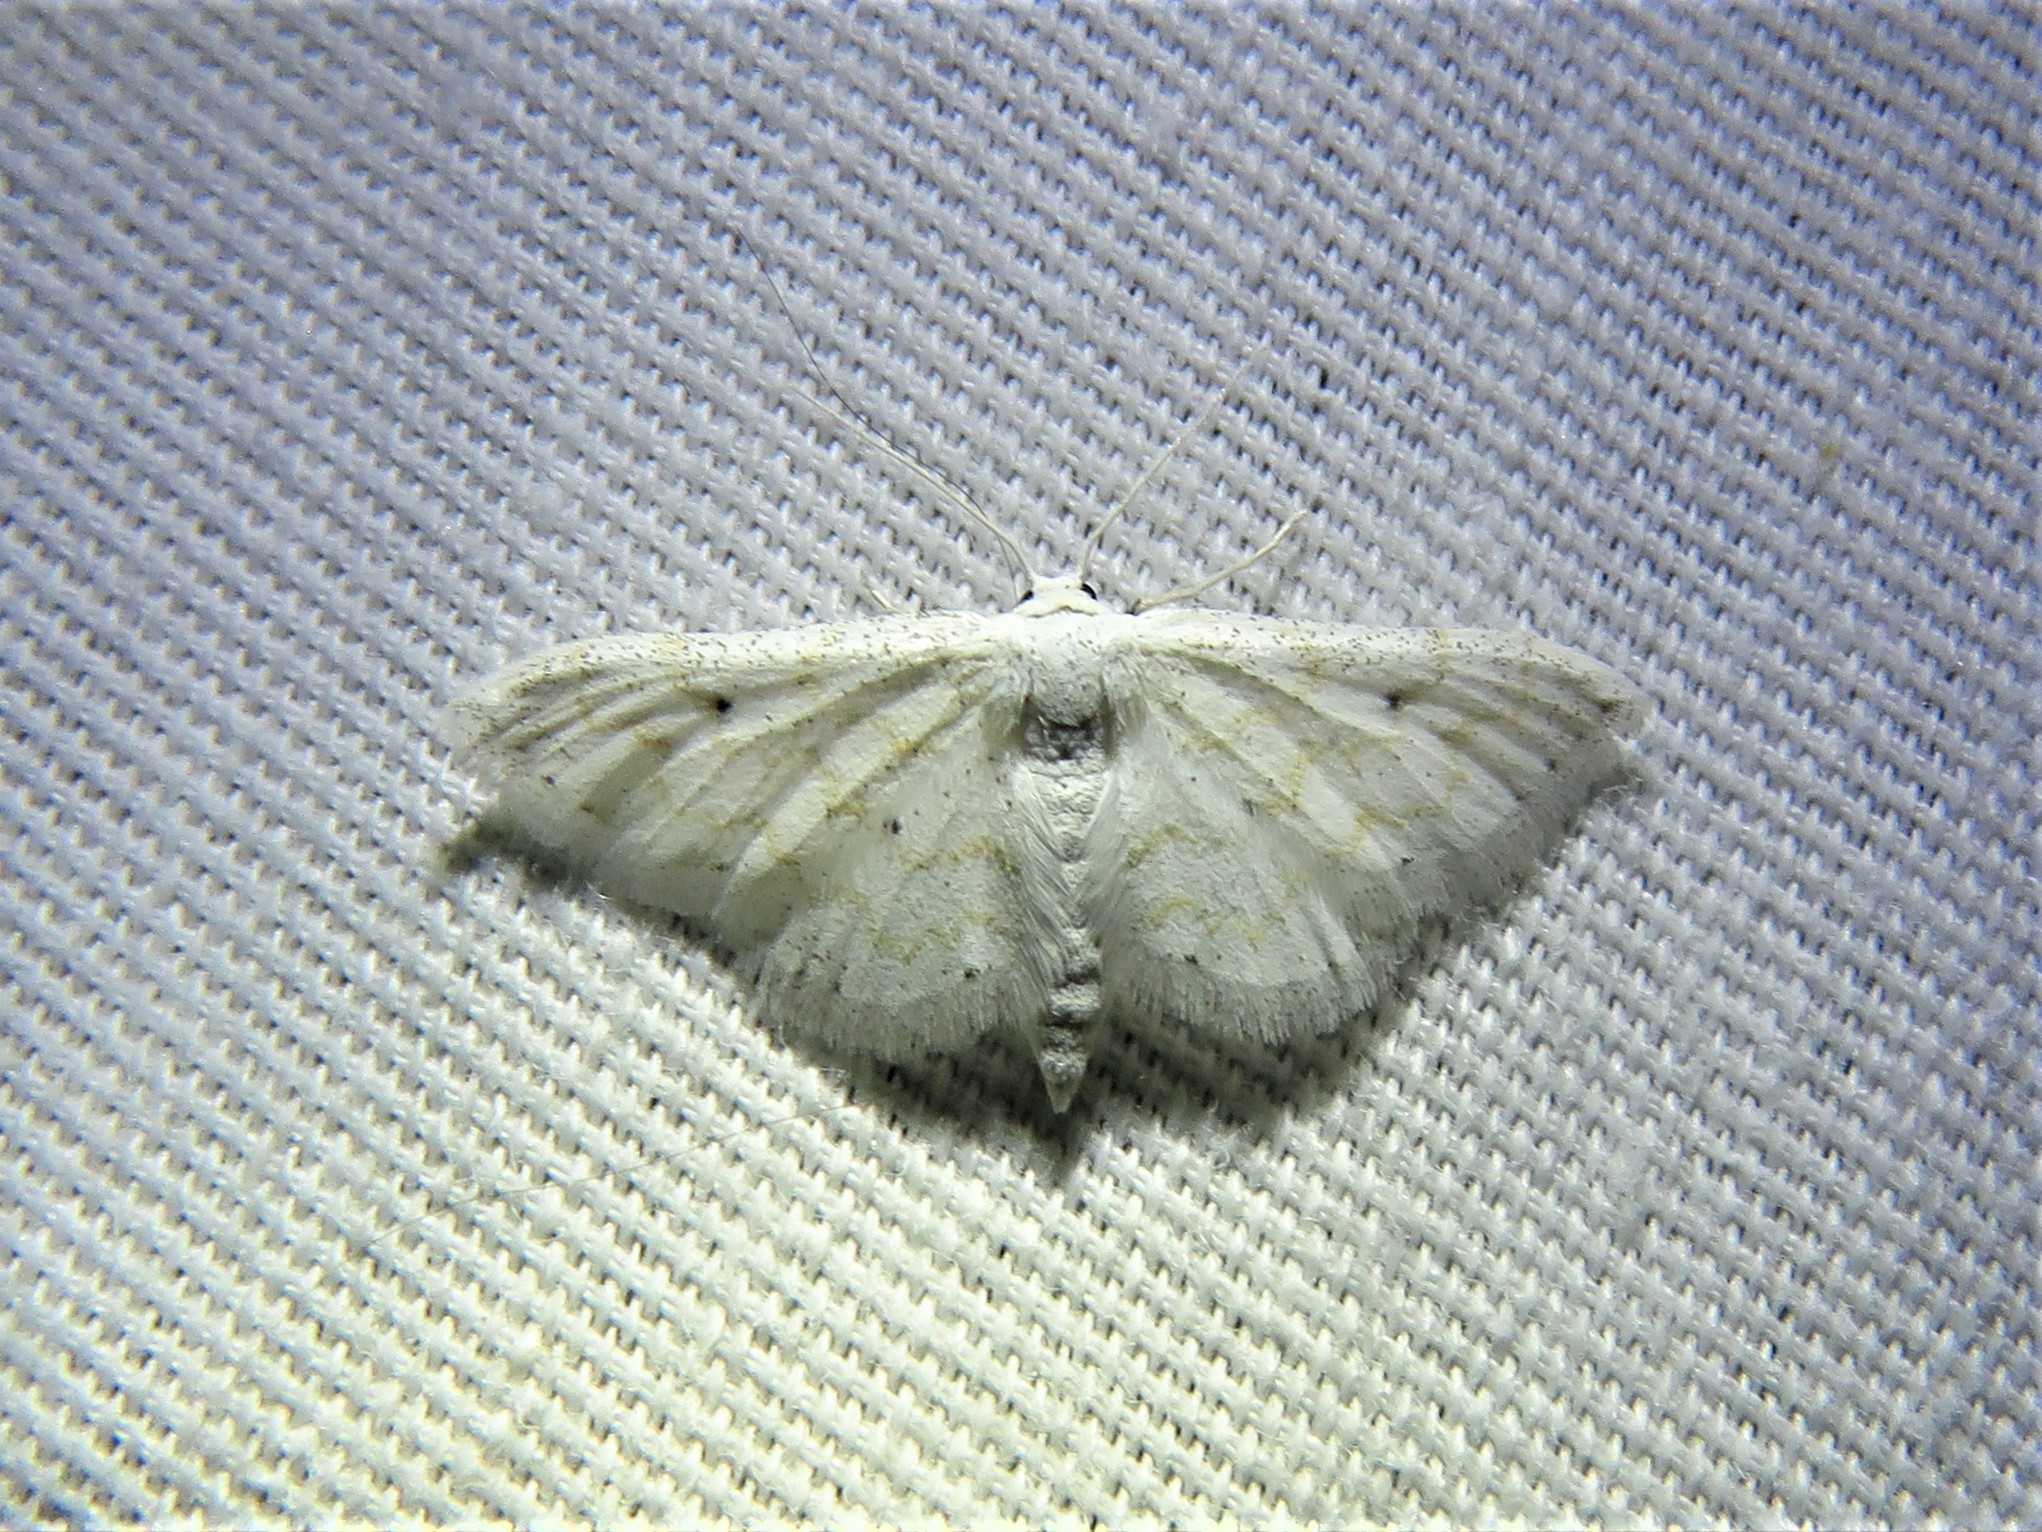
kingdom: Animalia
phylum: Arthropoda
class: Insecta
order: Lepidoptera
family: Geometridae
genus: Lobocleta
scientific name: Lobocleta peralbata
